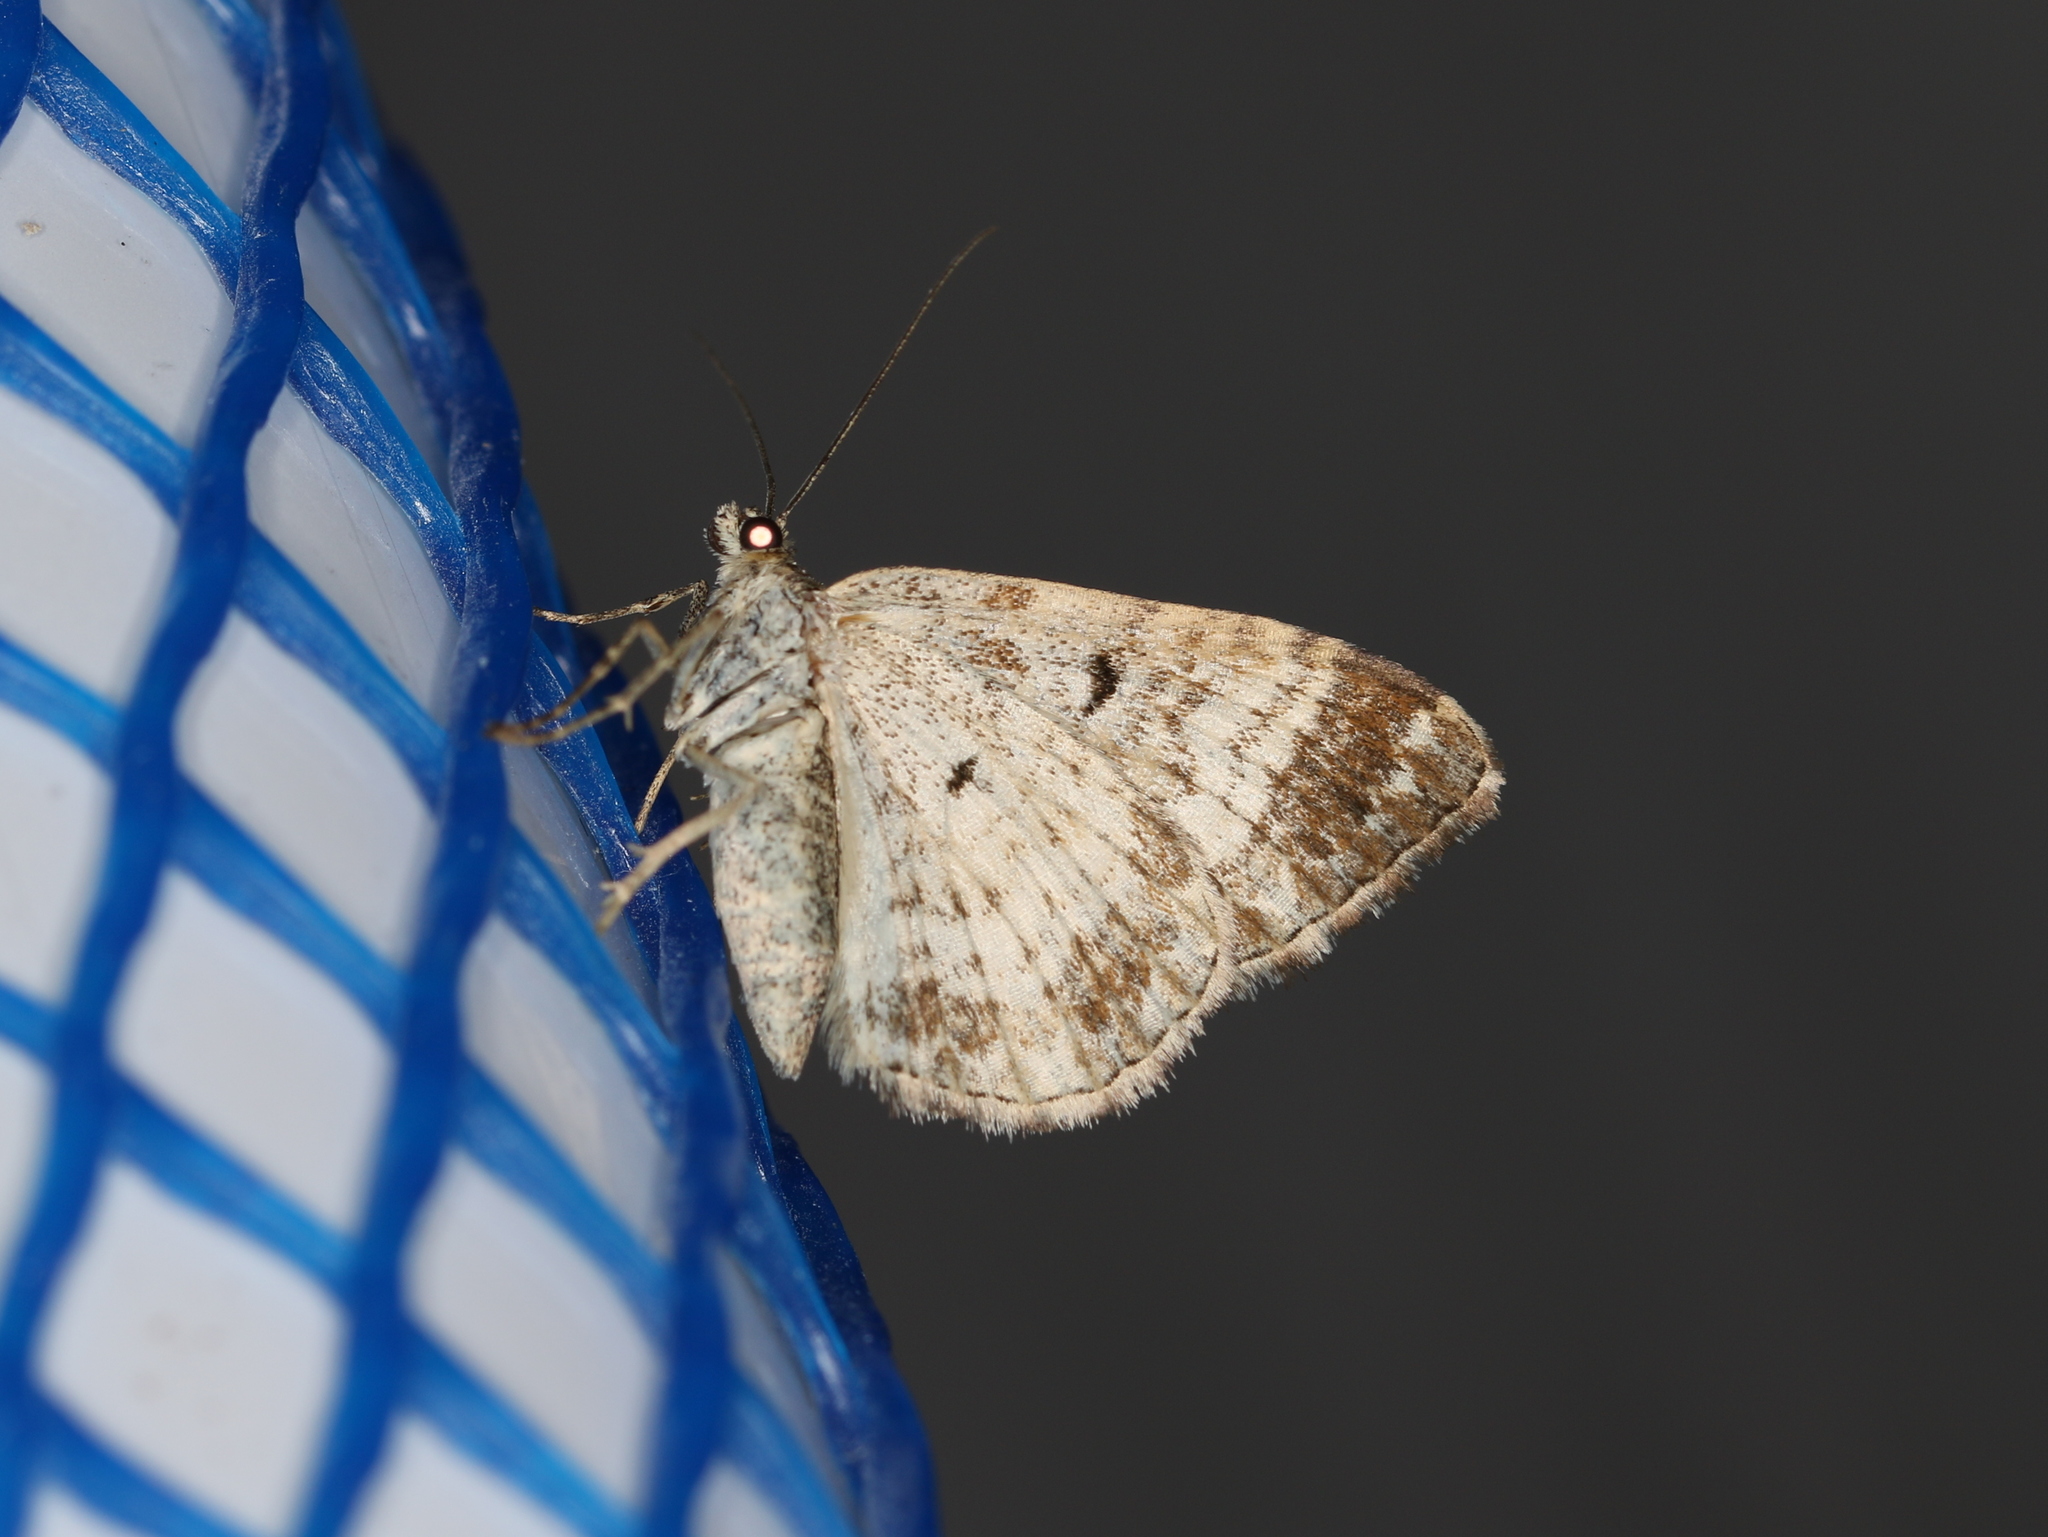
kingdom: Animalia
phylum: Arthropoda
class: Insecta
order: Lepidoptera
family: Geometridae
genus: Epirrhoe
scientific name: Epirrhoe alternata
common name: Common carpet
